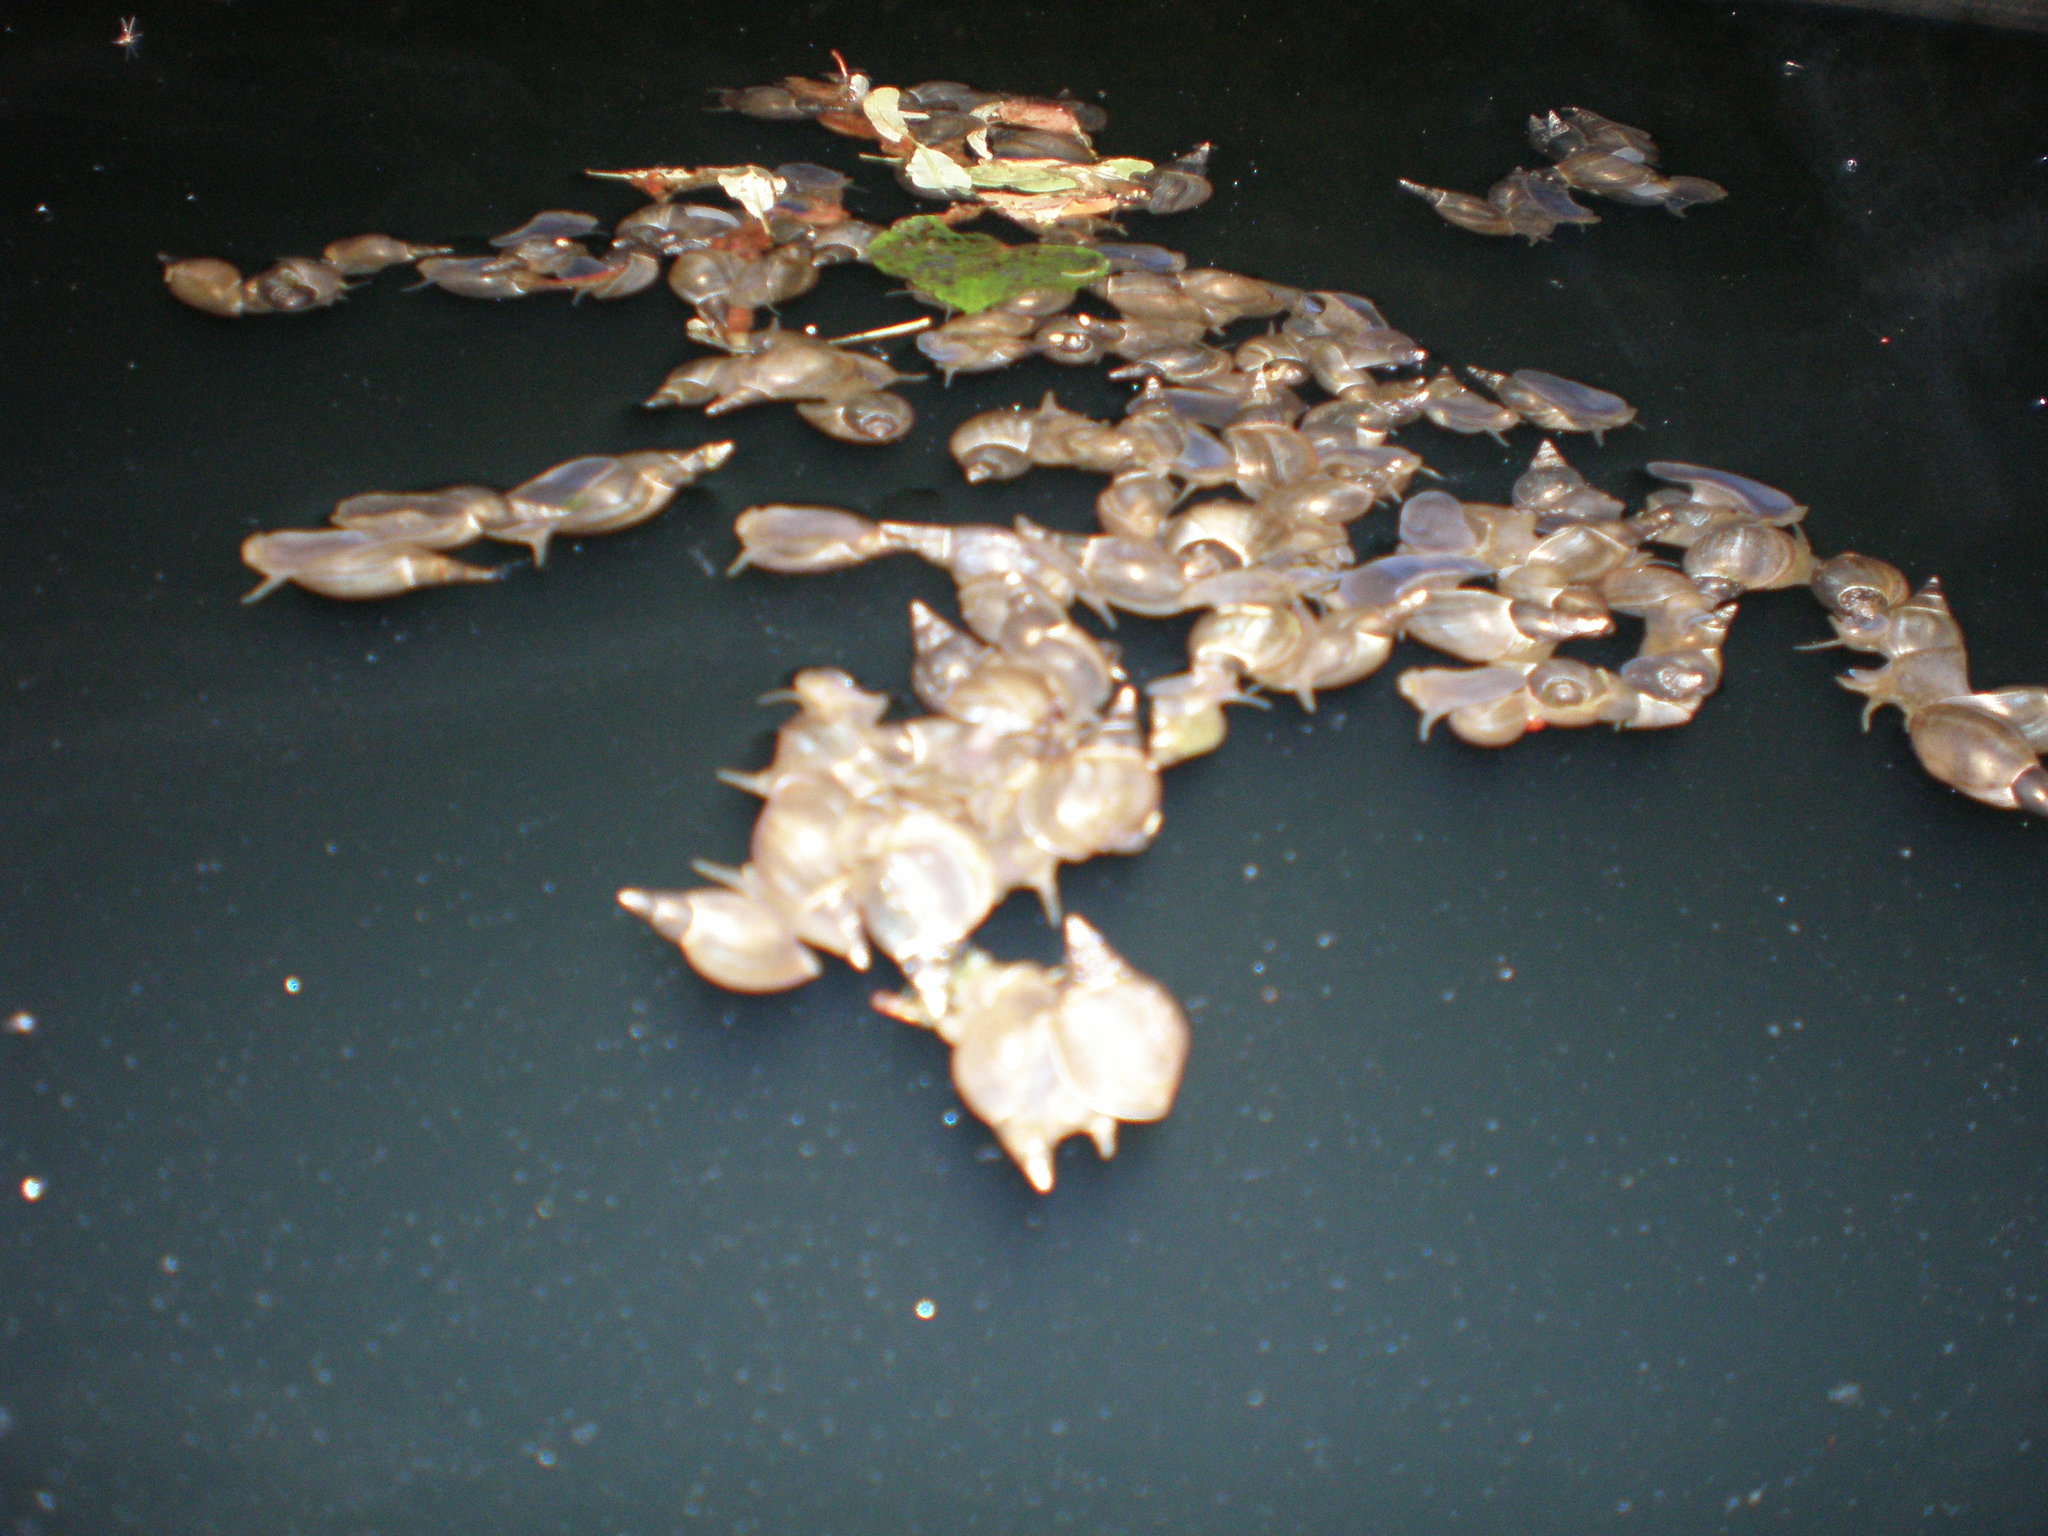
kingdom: Animalia
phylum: Mollusca
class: Gastropoda
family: Lymnaeidae
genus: Lymnaea
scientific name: Lymnaea stagnalis
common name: Great pond snail
